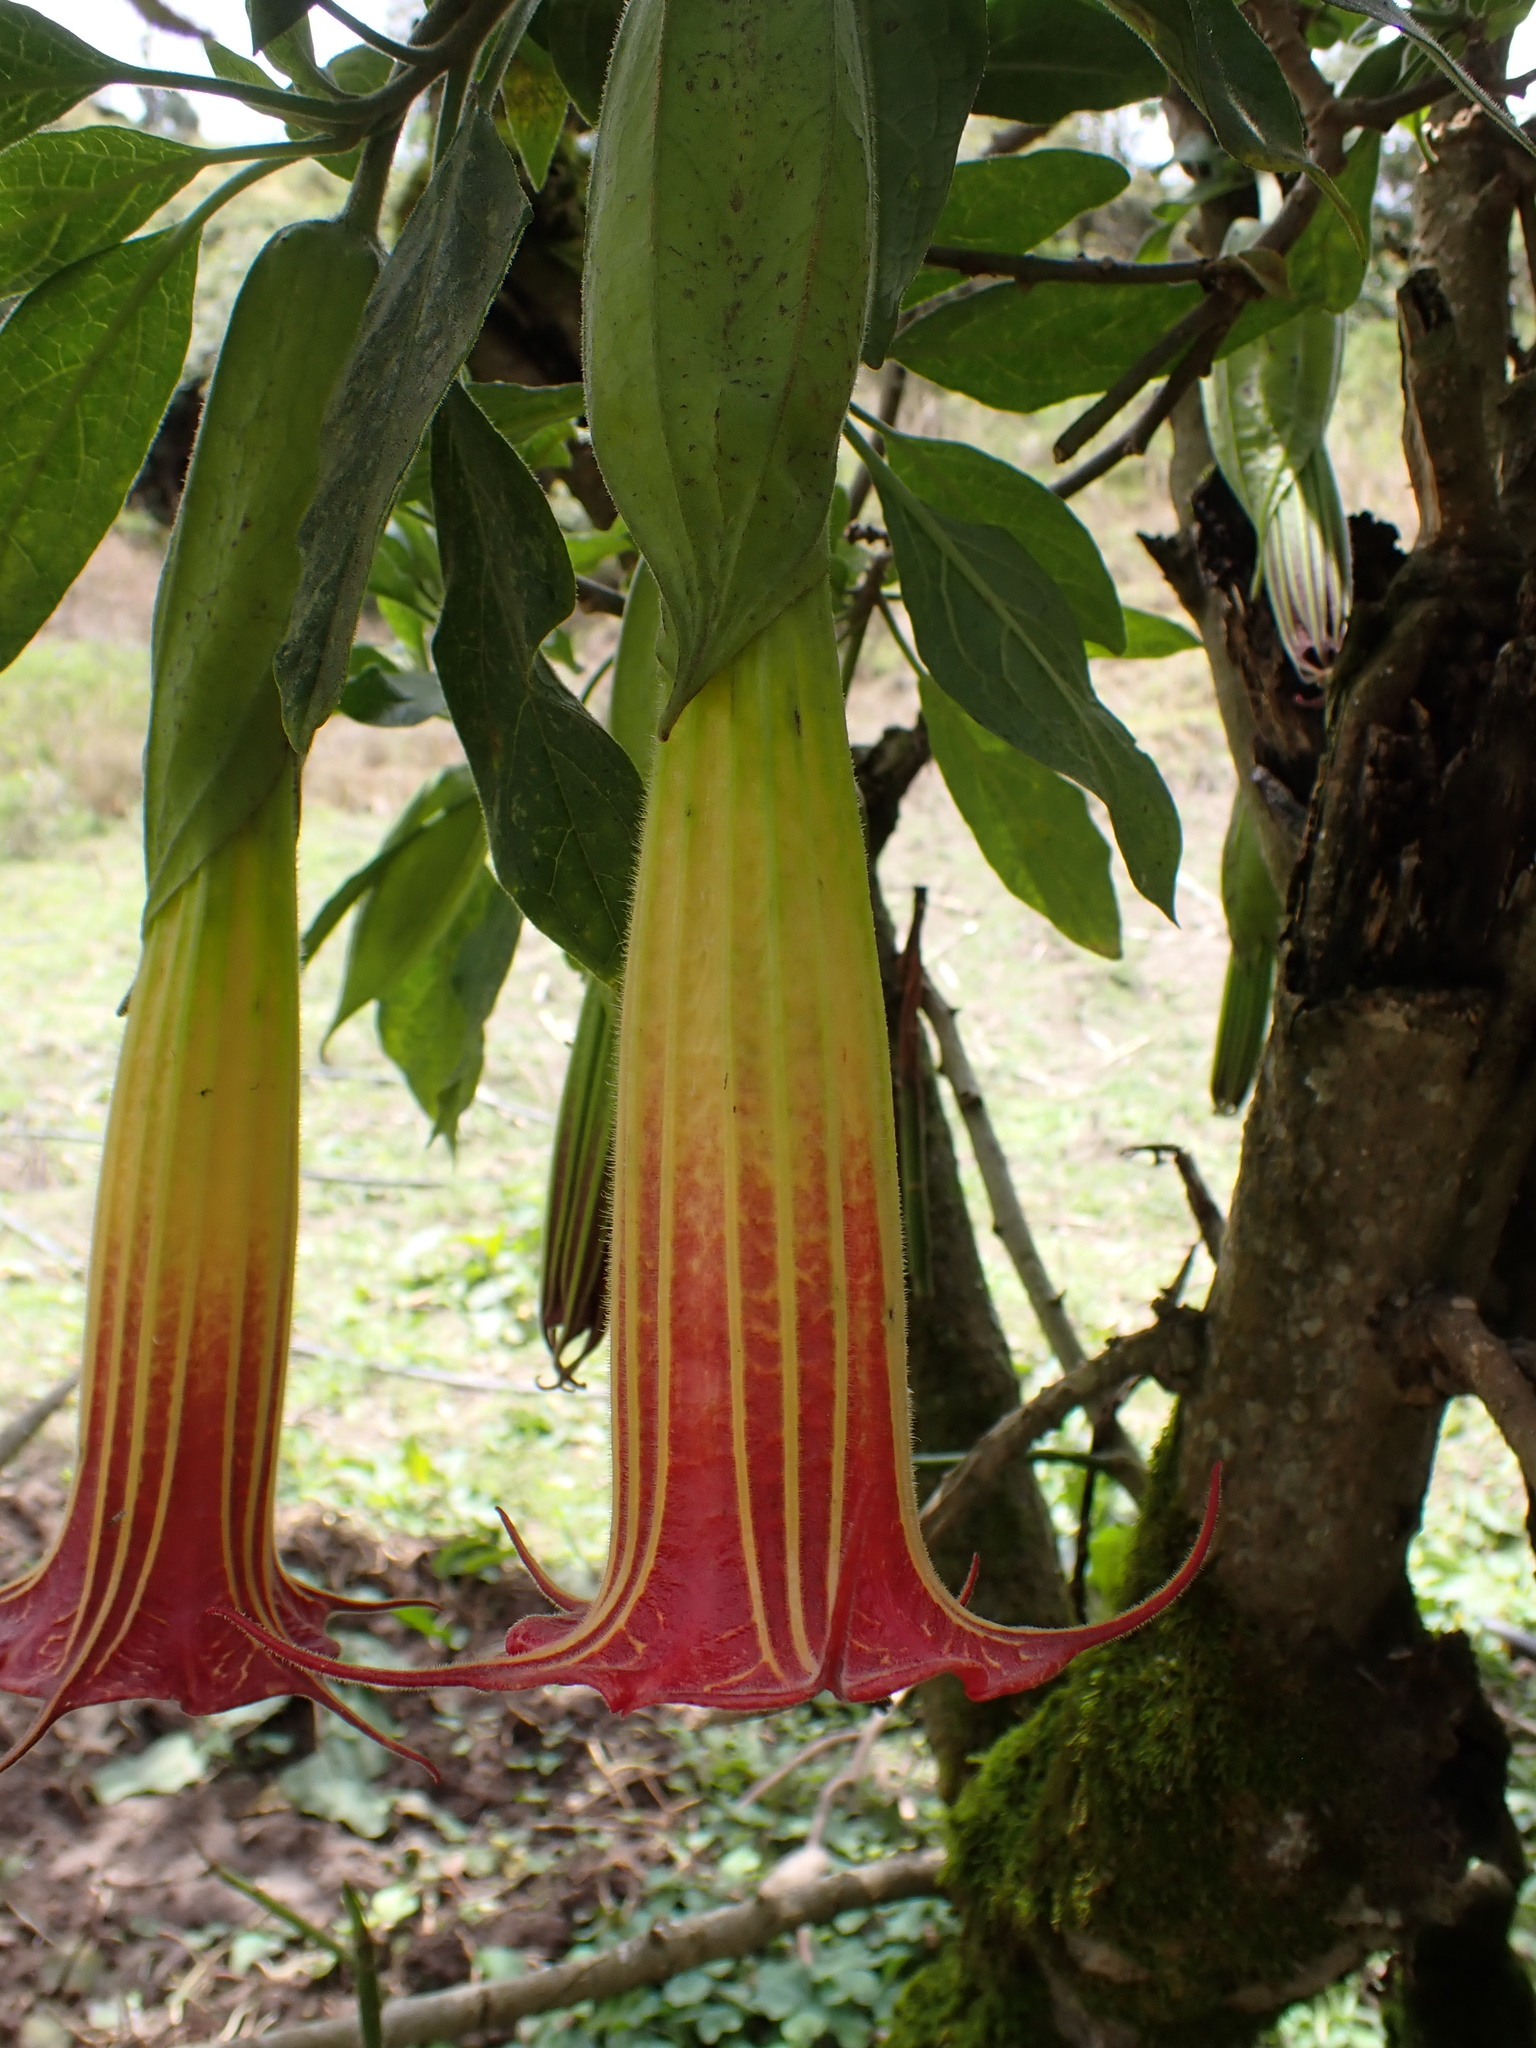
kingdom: Plantae
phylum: Tracheophyta
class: Magnoliopsida
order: Solanales
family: Solanaceae
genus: Brugmansia
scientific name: Brugmansia sanguinea
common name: Red floripontio
